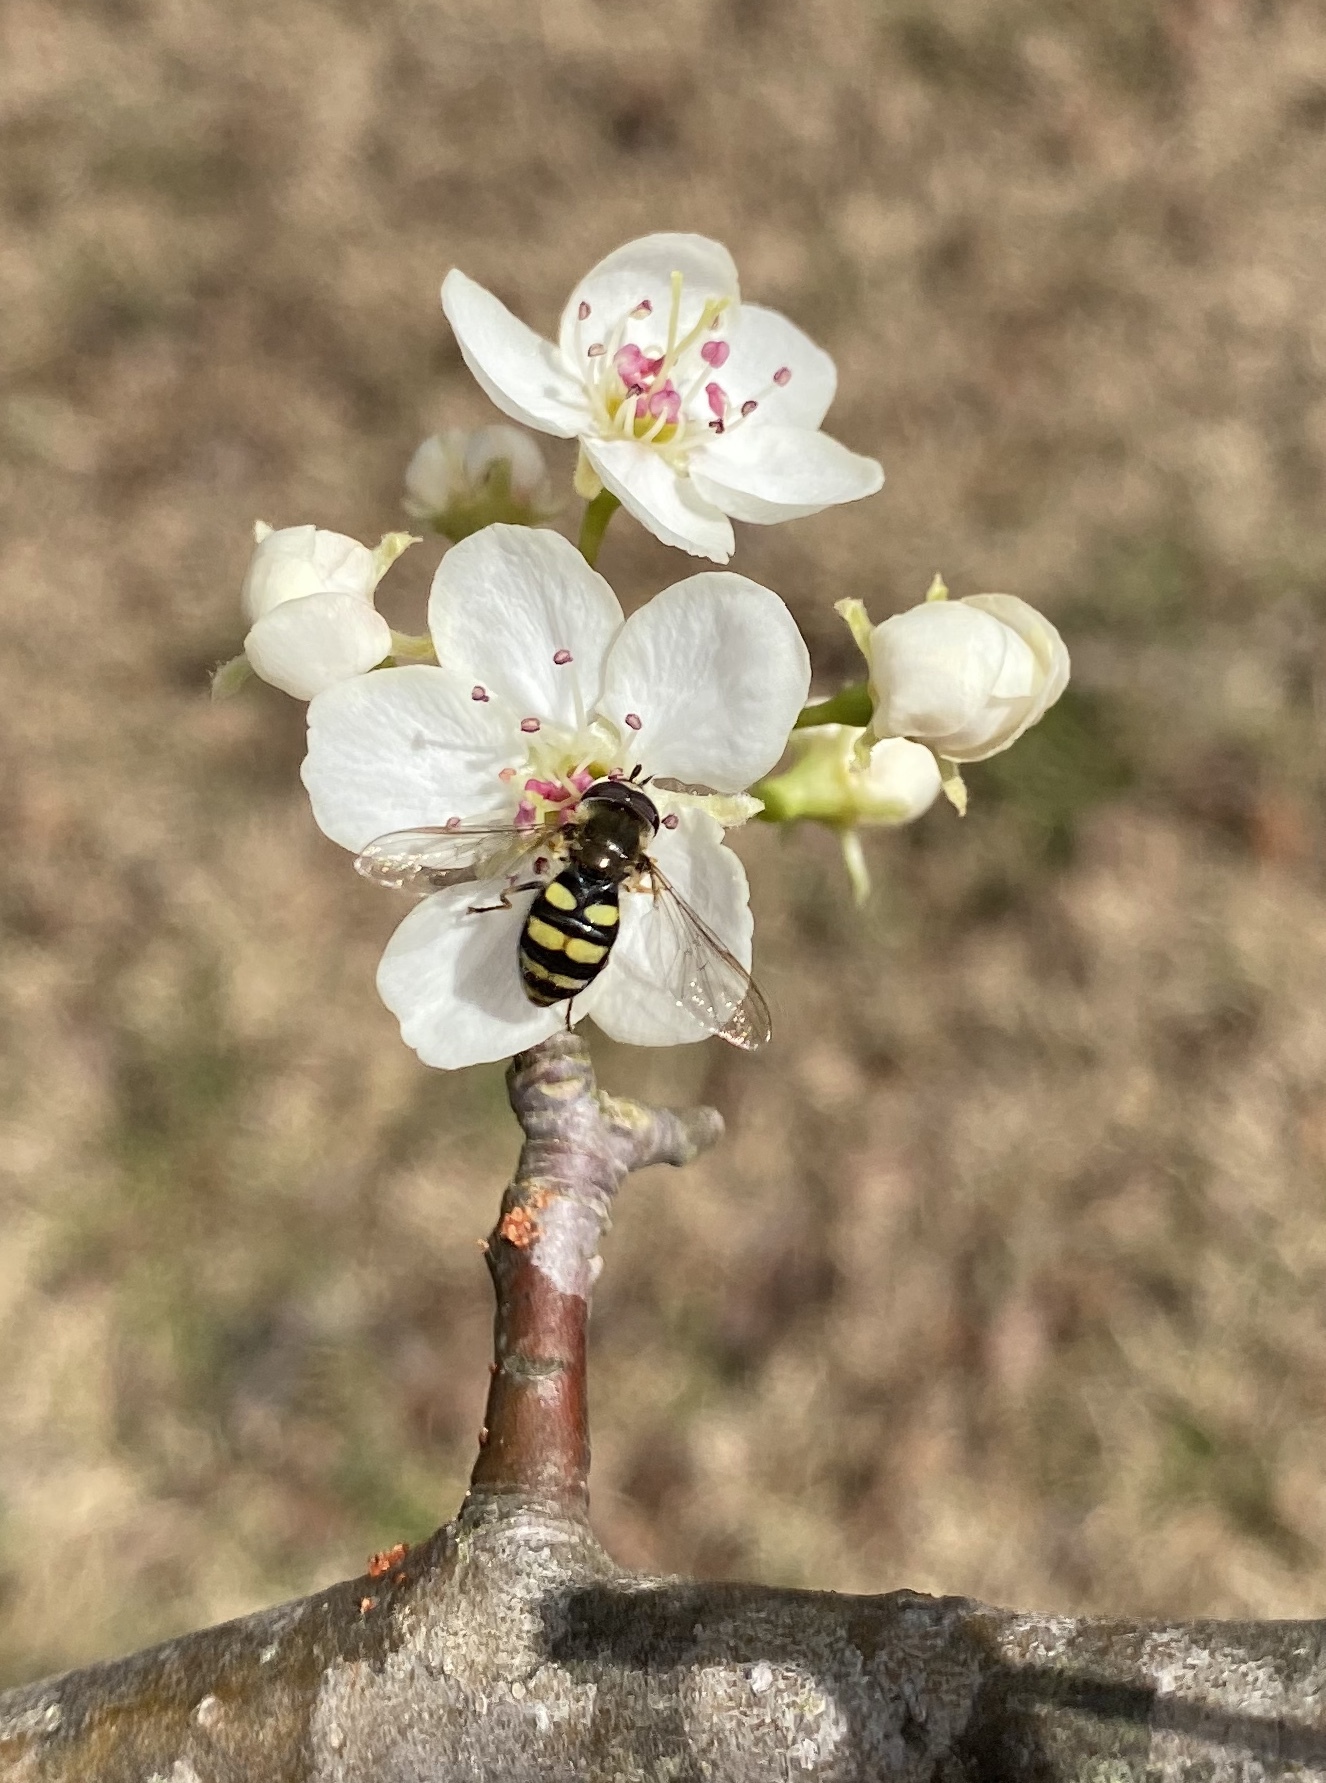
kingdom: Animalia
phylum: Arthropoda
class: Insecta
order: Diptera
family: Syrphidae
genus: Eupeodes
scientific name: Eupeodes
